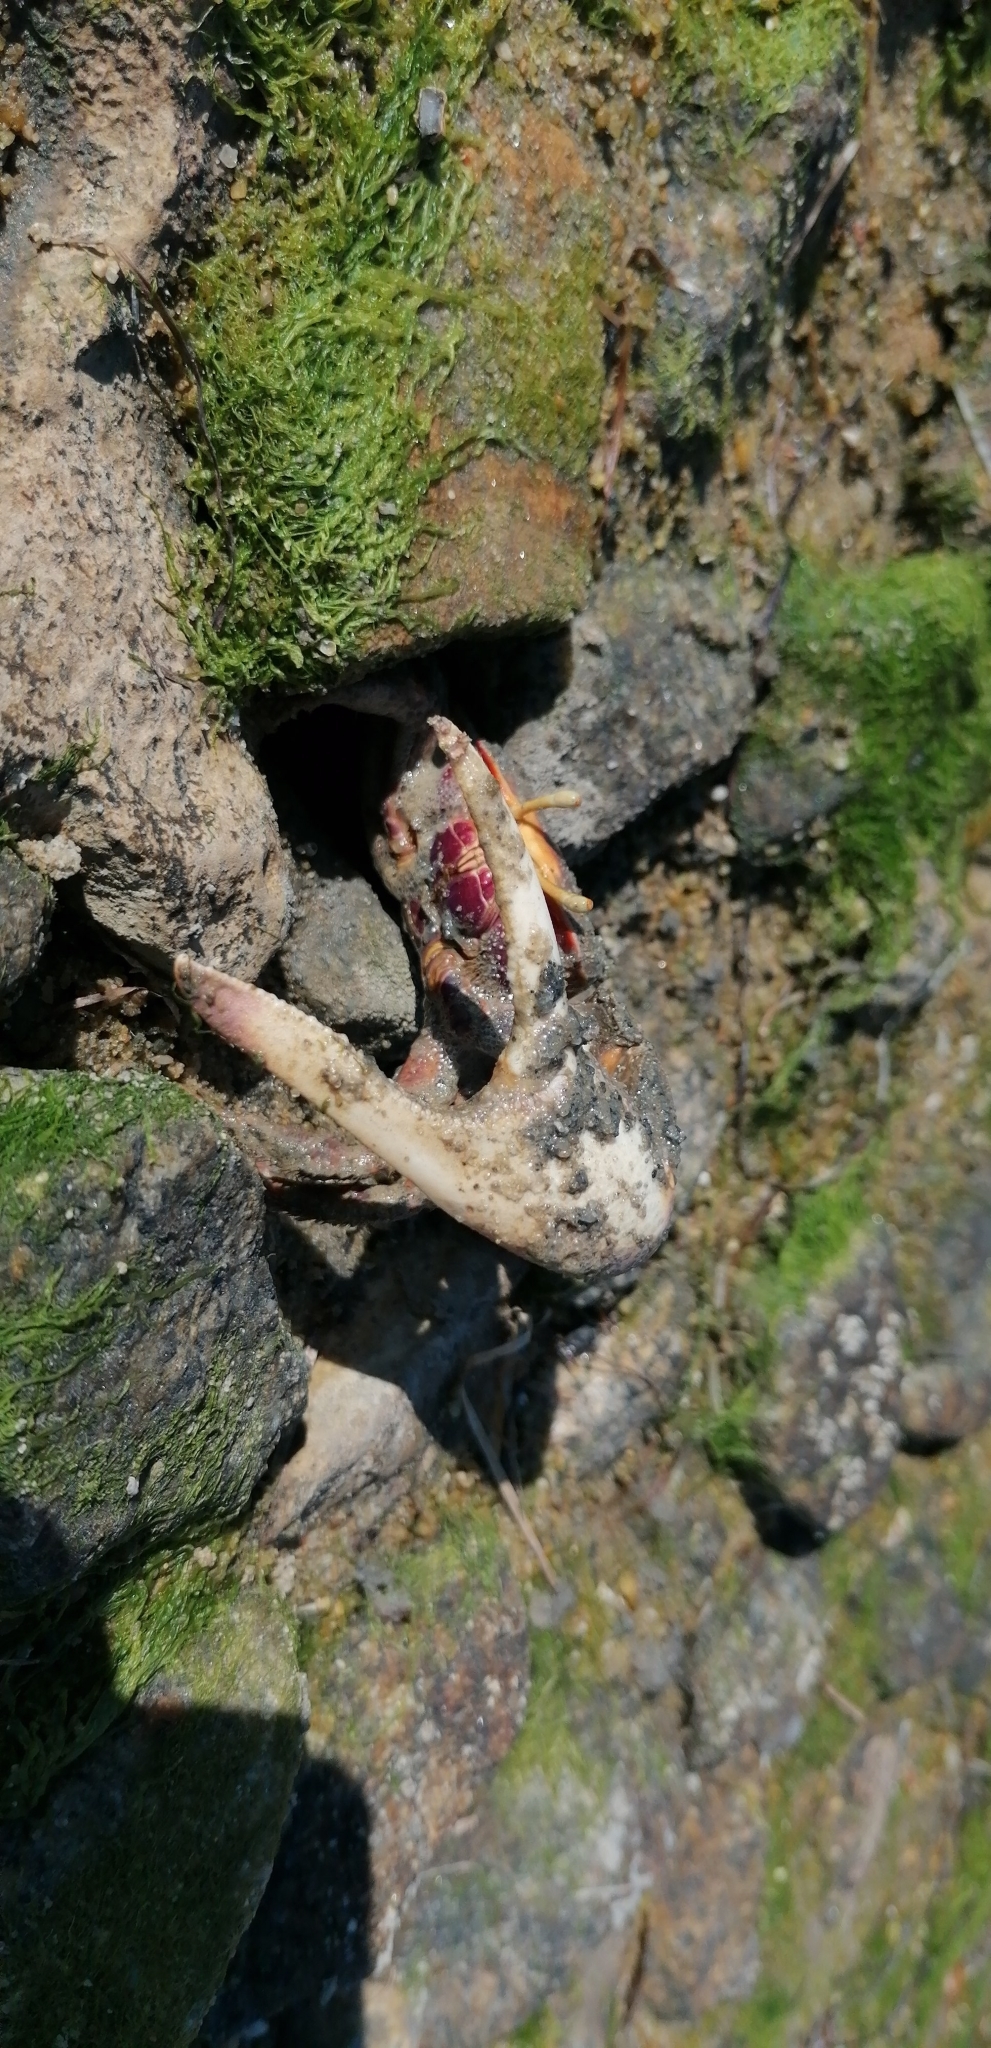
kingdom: Animalia
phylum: Arthropoda
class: Malacostraca
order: Decapoda
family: Ocypodidae
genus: Afruca
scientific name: Afruca tangeri
